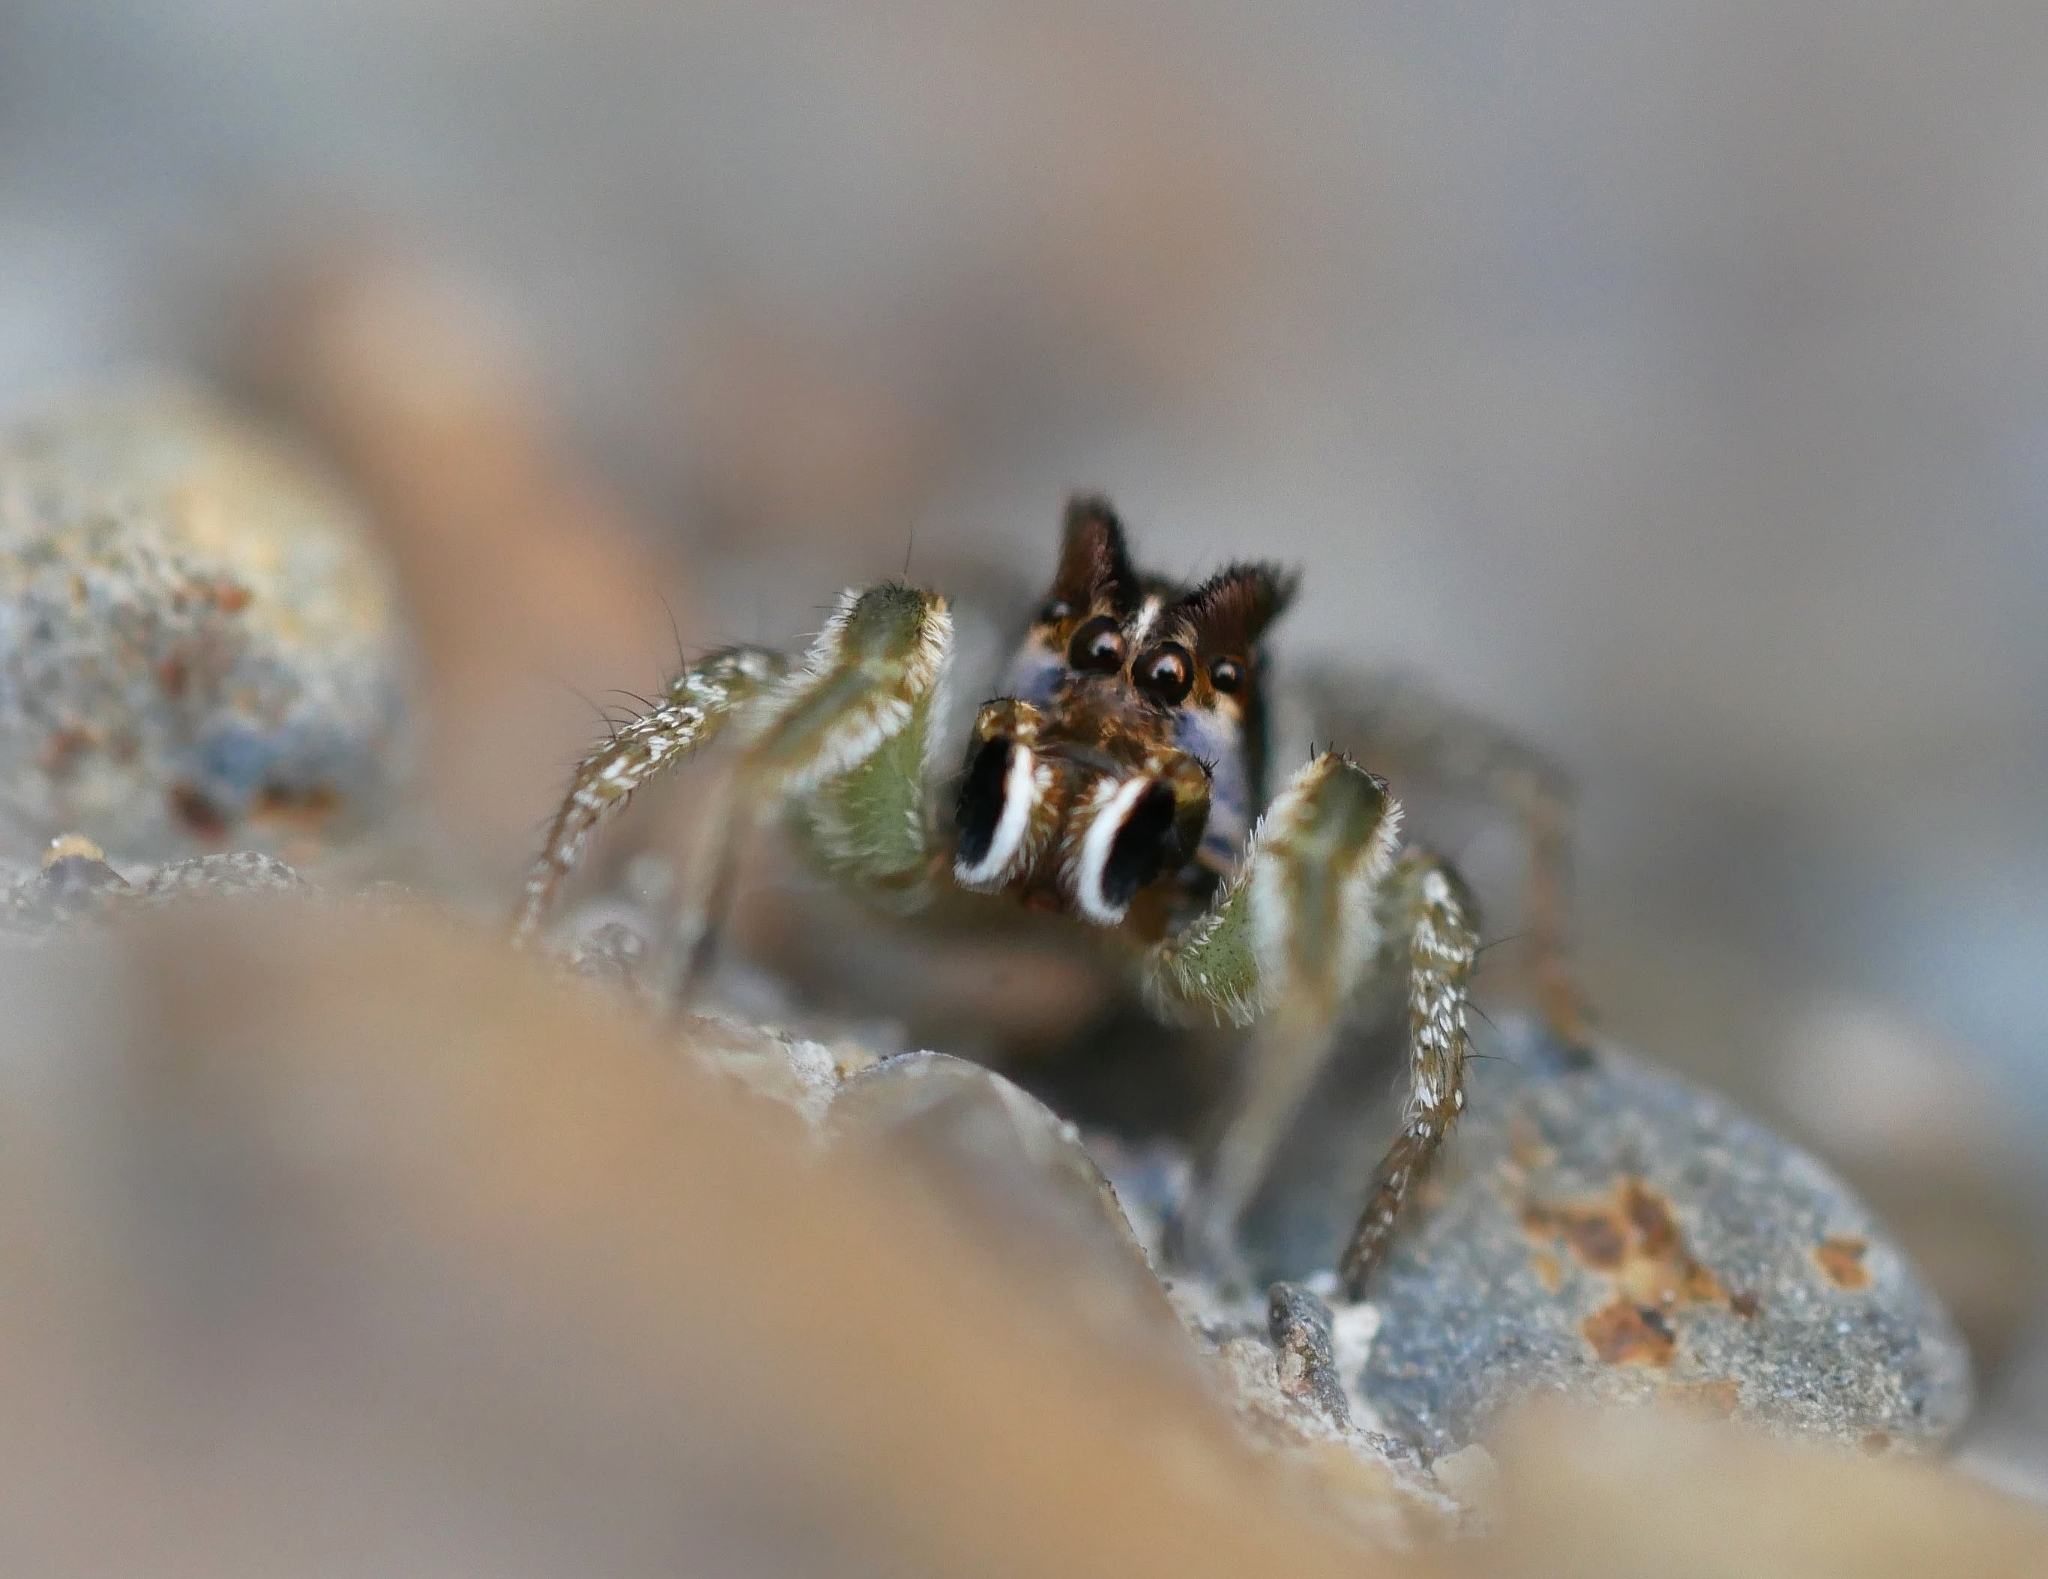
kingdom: Animalia
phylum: Arthropoda
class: Arachnida
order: Araneae
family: Salticidae
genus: Habronattus
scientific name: Habronattus ophrys
